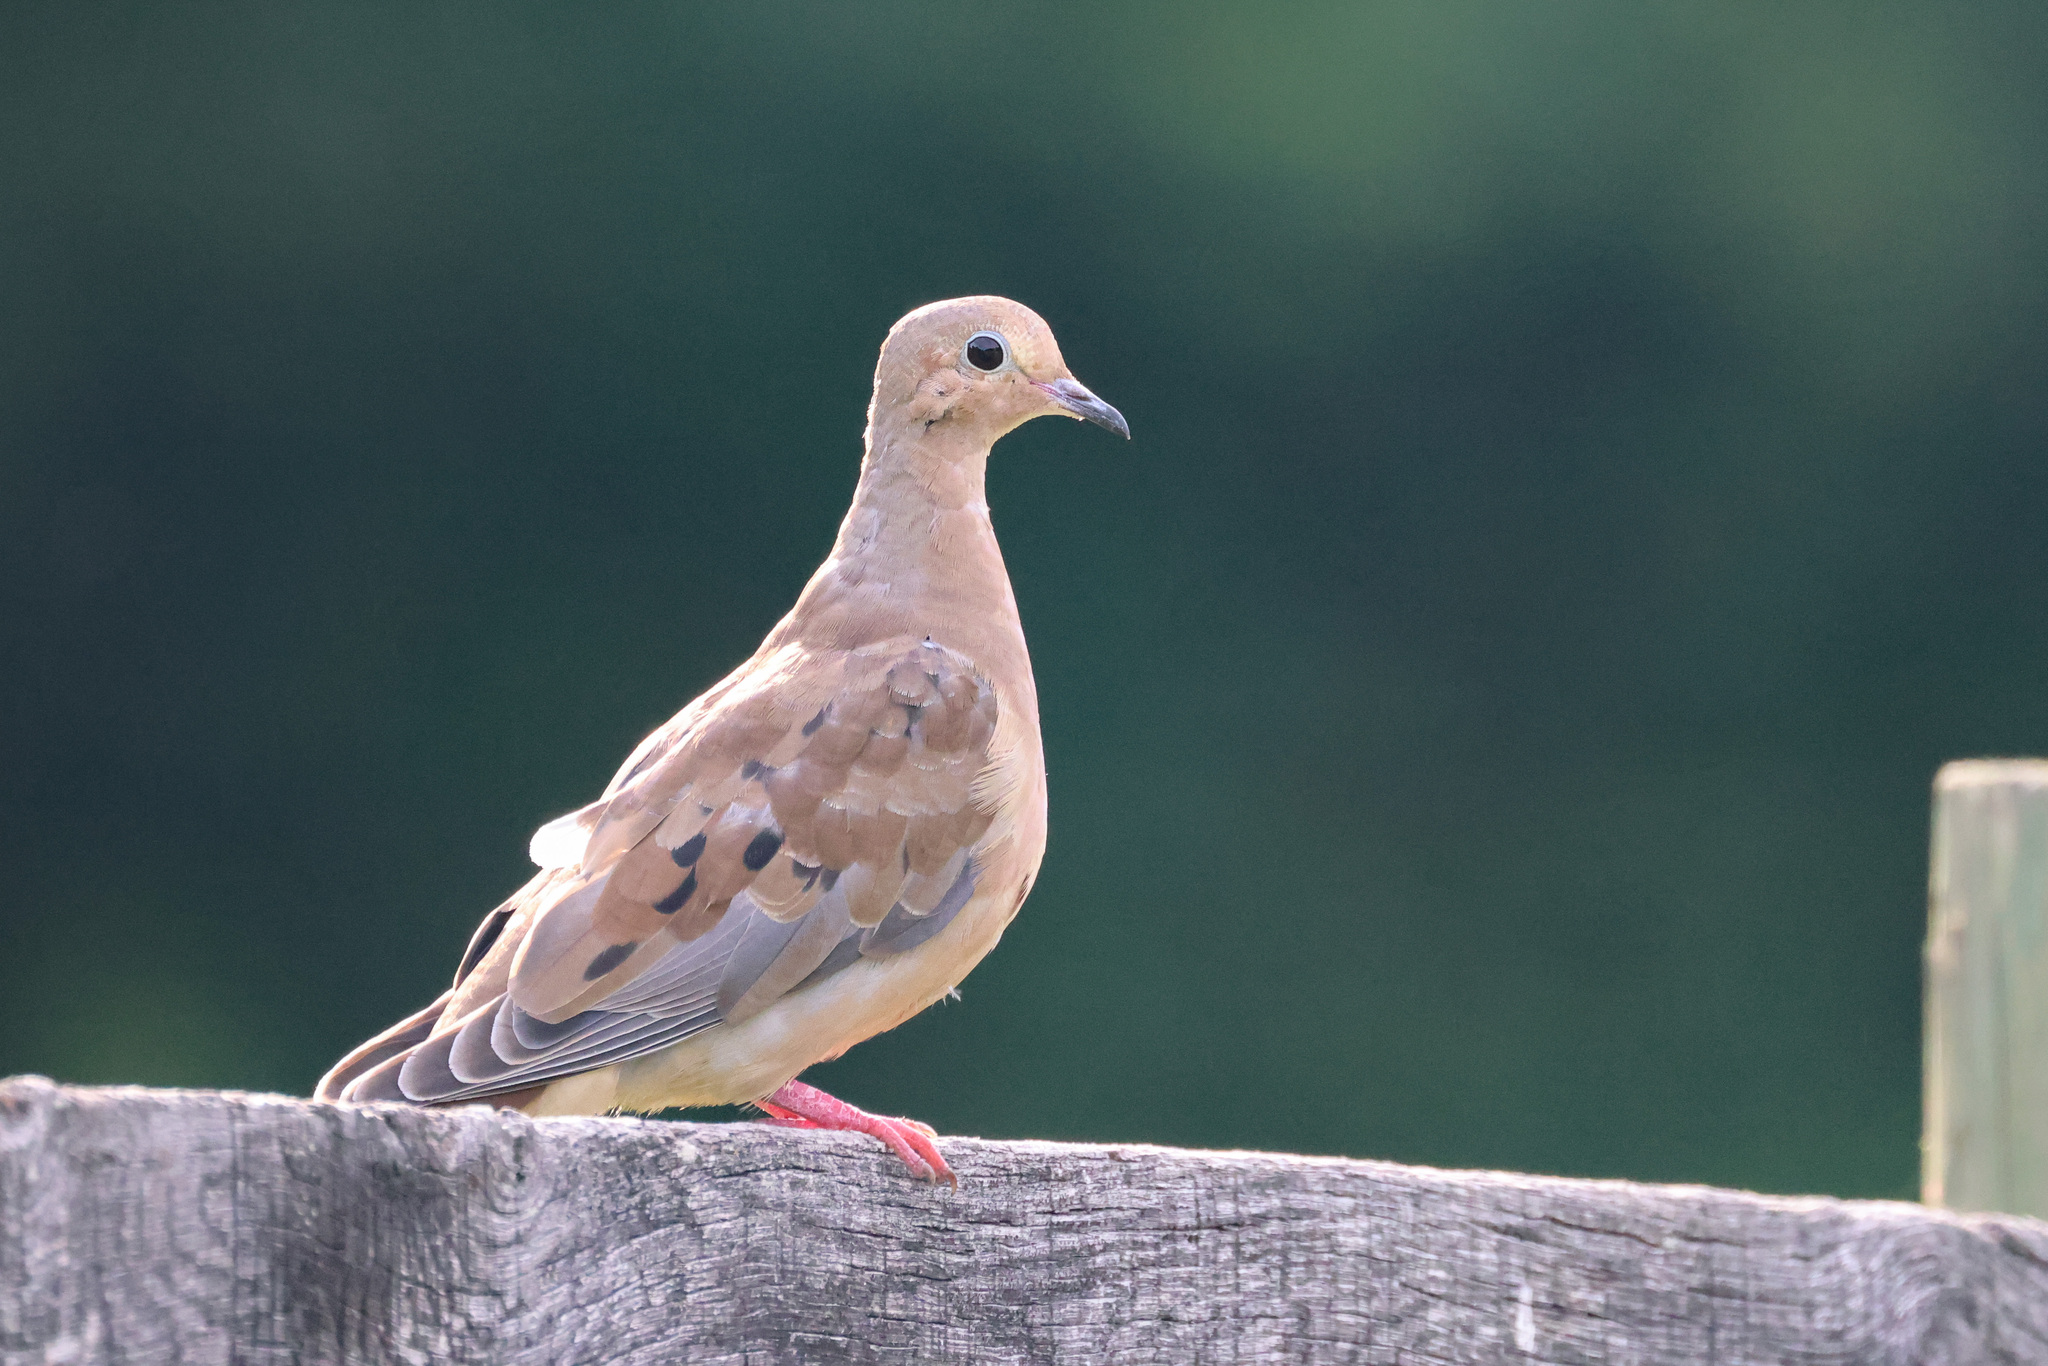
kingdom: Animalia
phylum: Chordata
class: Aves
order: Columbiformes
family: Columbidae
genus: Zenaida
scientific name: Zenaida macroura
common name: Mourning dove
